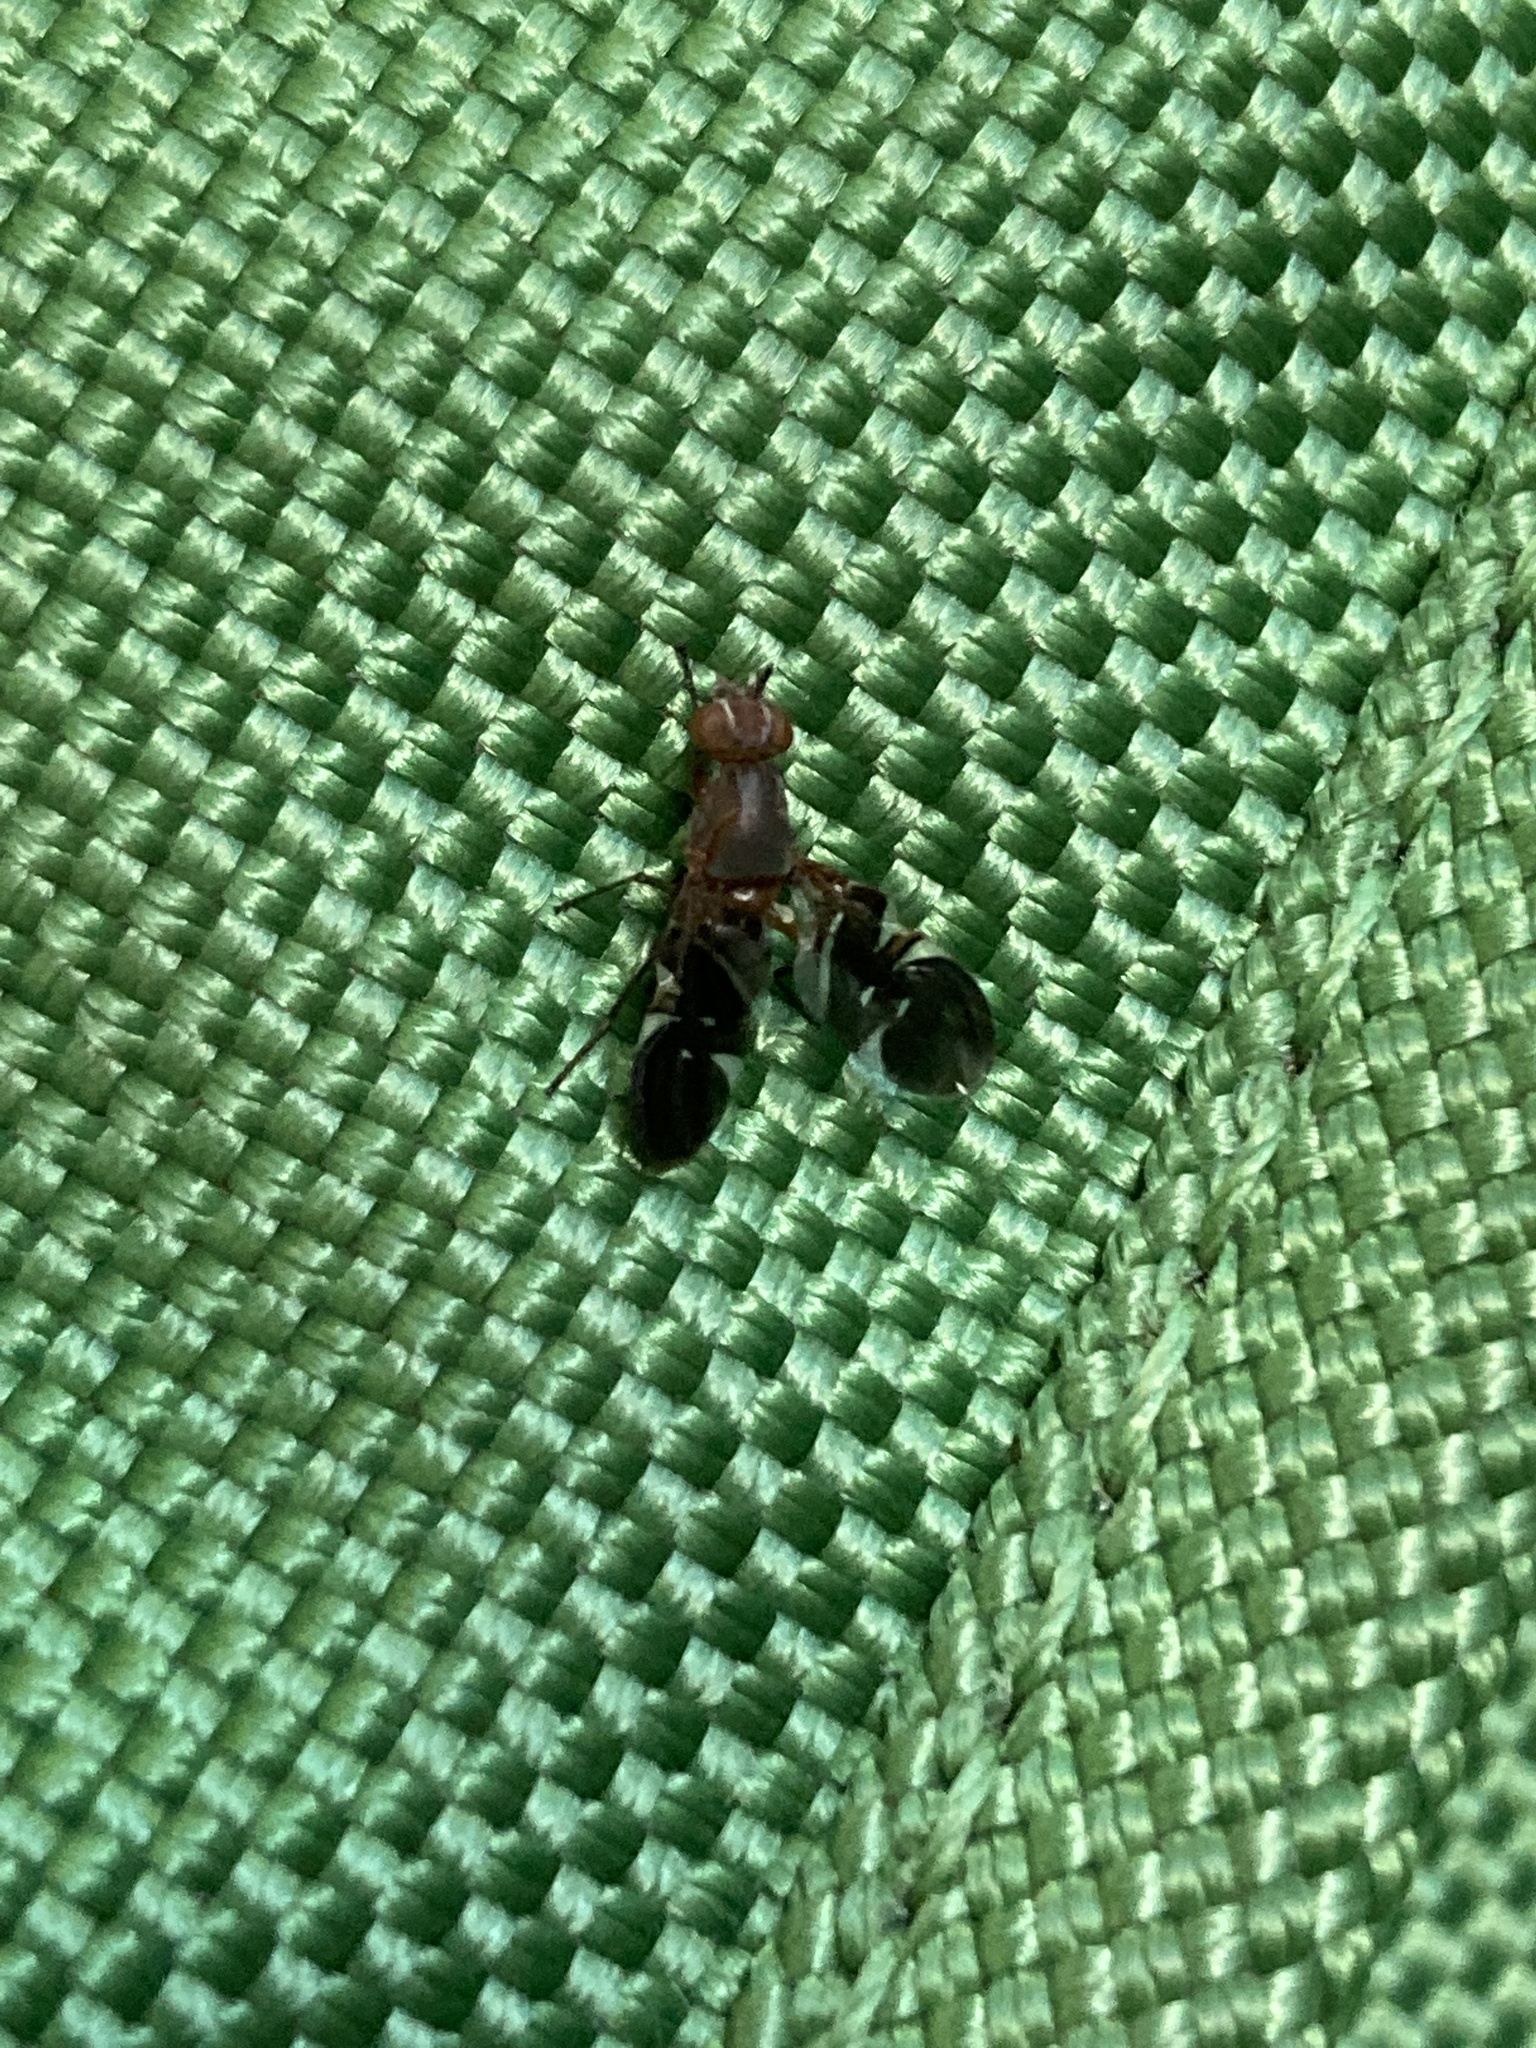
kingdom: Animalia
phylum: Arthropoda
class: Insecta
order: Diptera
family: Ulidiidae
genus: Delphinia
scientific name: Delphinia picta
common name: Common picture-winged fly
